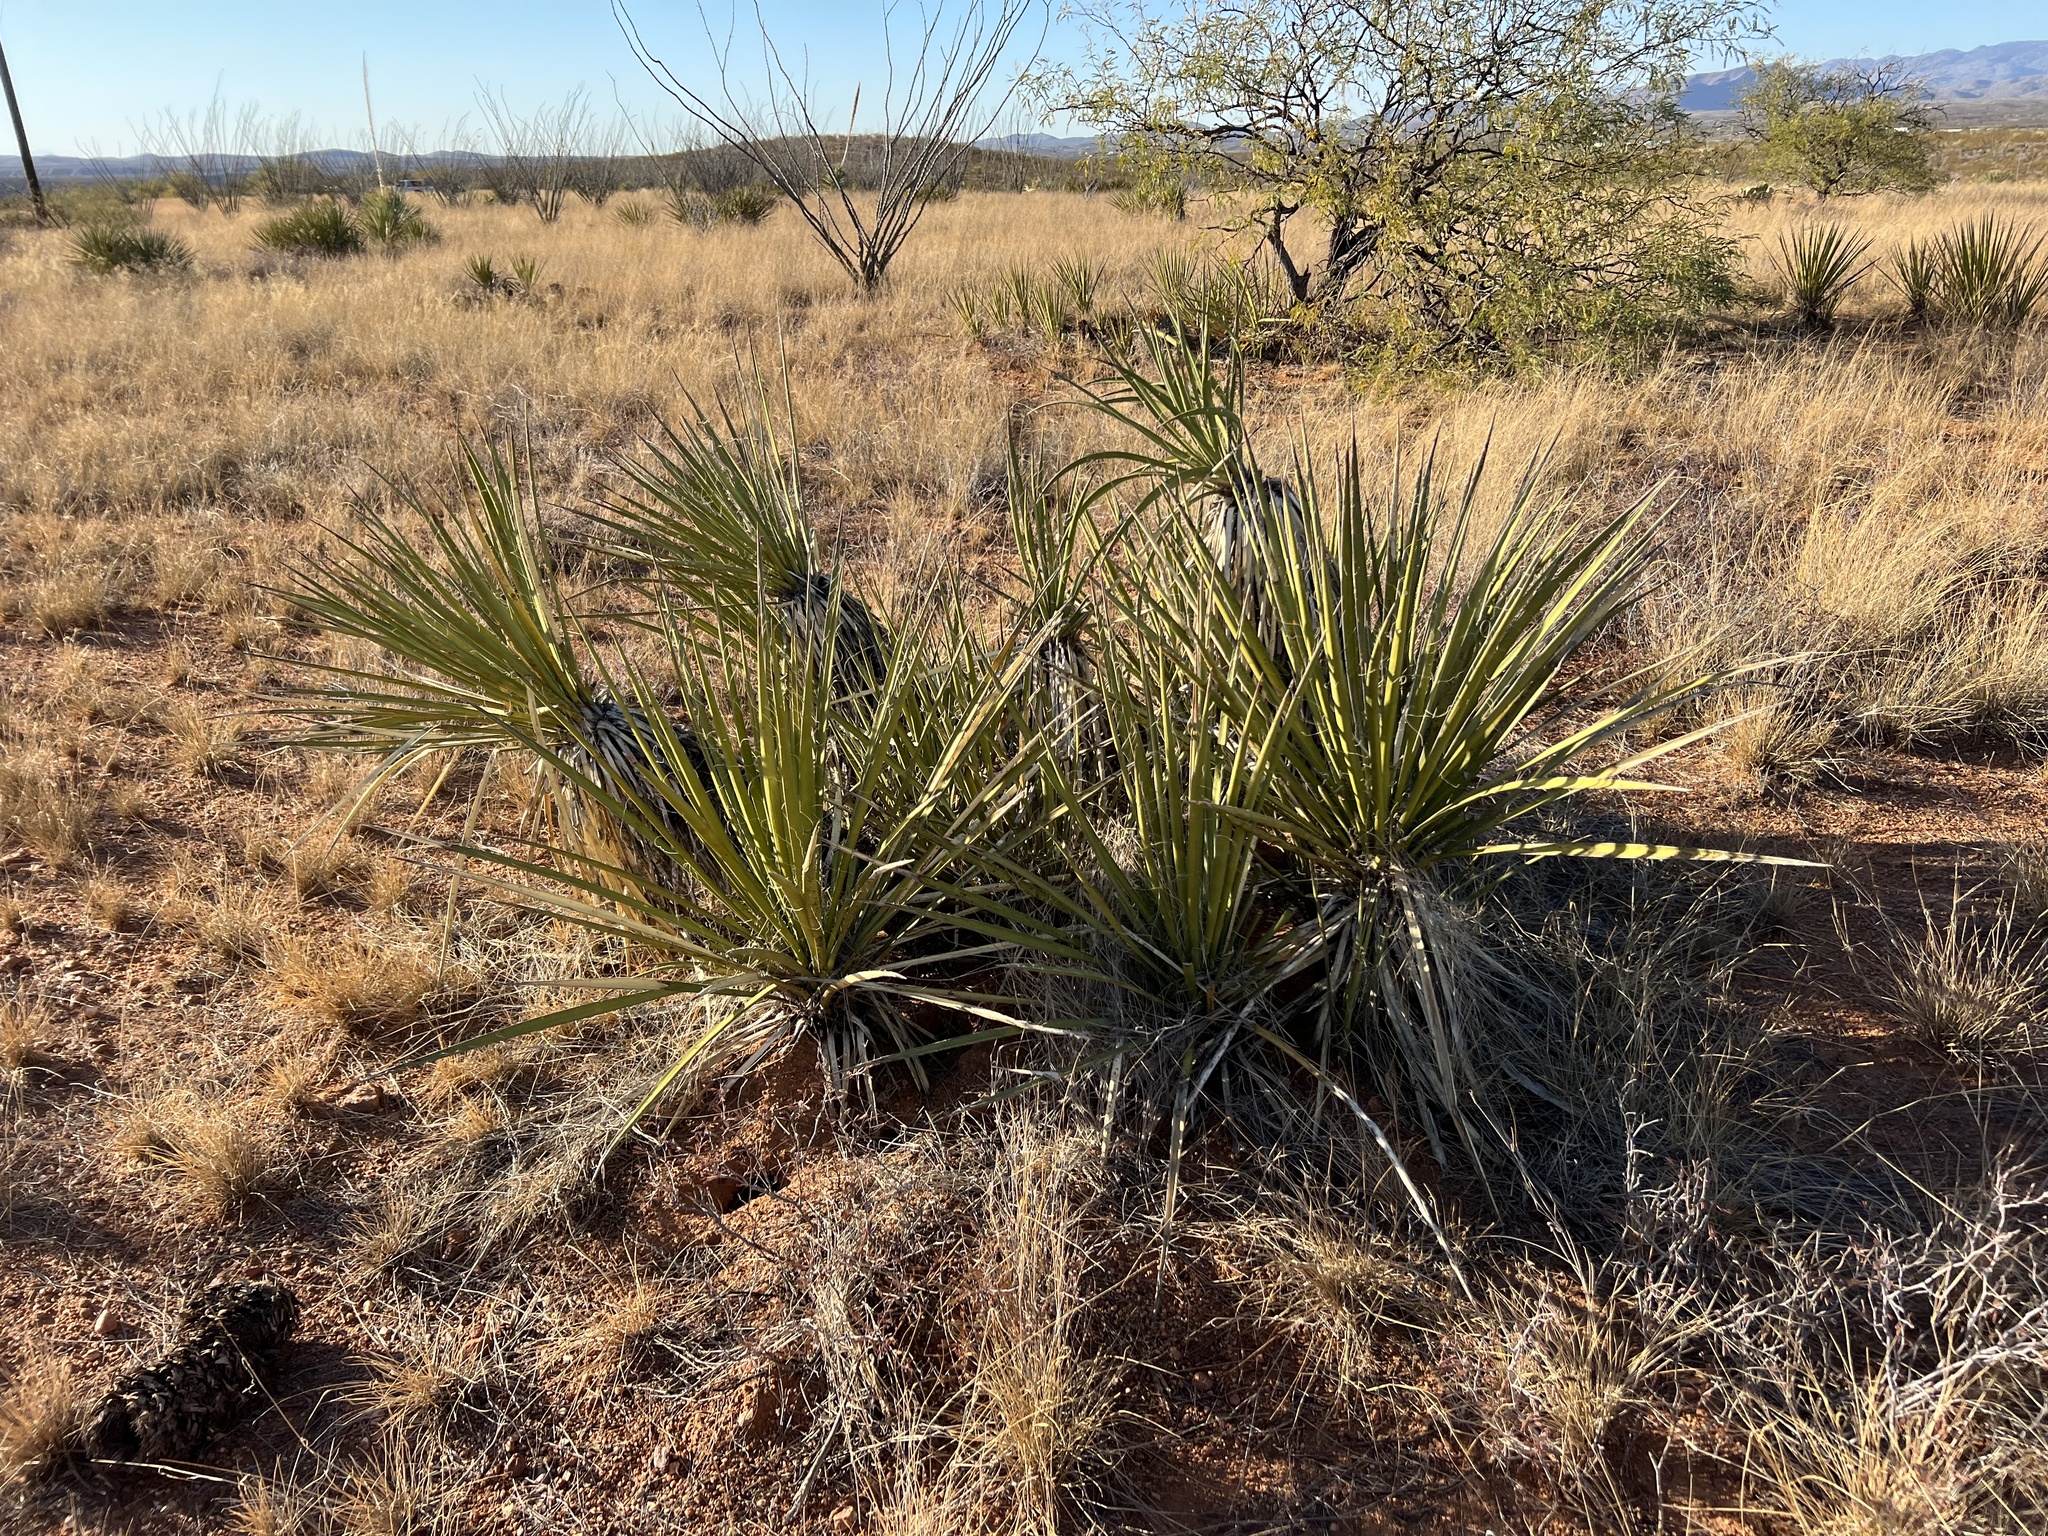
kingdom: Plantae
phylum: Tracheophyta
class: Liliopsida
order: Asparagales
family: Asparagaceae
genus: Yucca
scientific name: Yucca baccata
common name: Banana yucca
